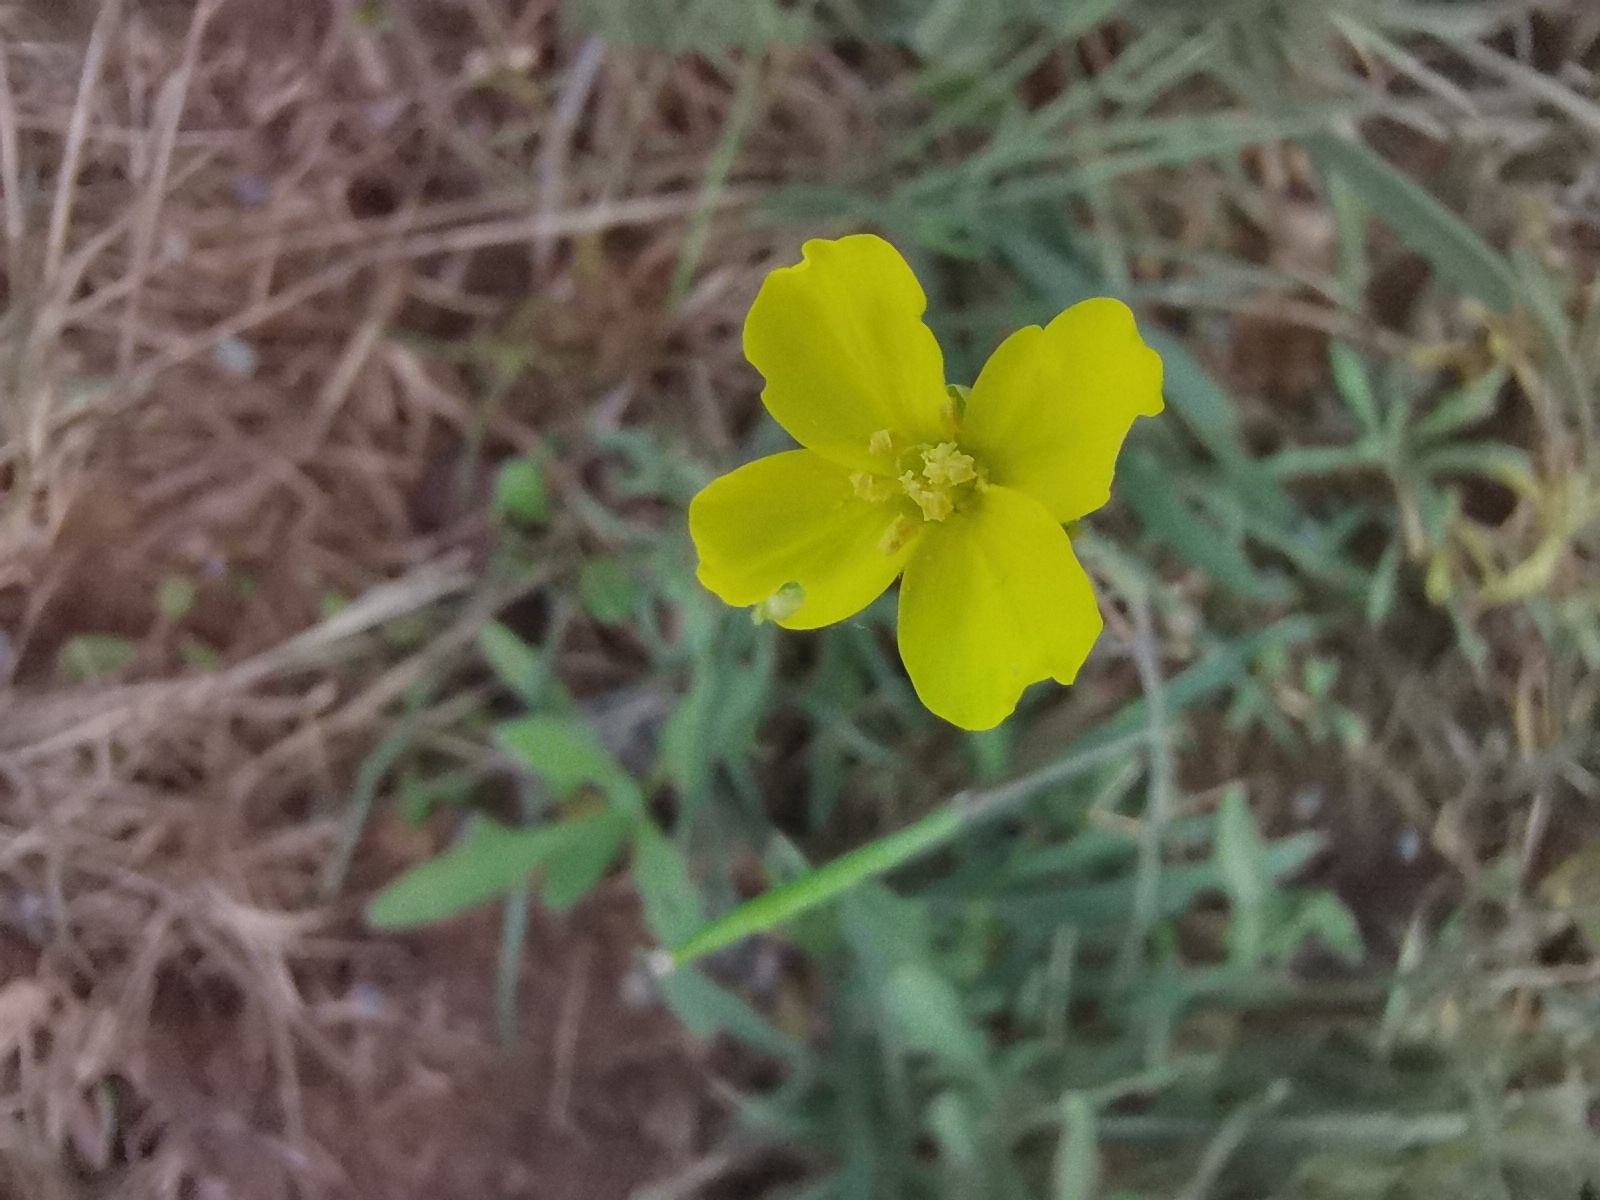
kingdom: Plantae
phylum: Tracheophyta
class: Magnoliopsida
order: Brassicales
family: Brassicaceae
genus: Diplotaxis
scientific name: Diplotaxis tenuifolia
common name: Perennial wall-rocket
